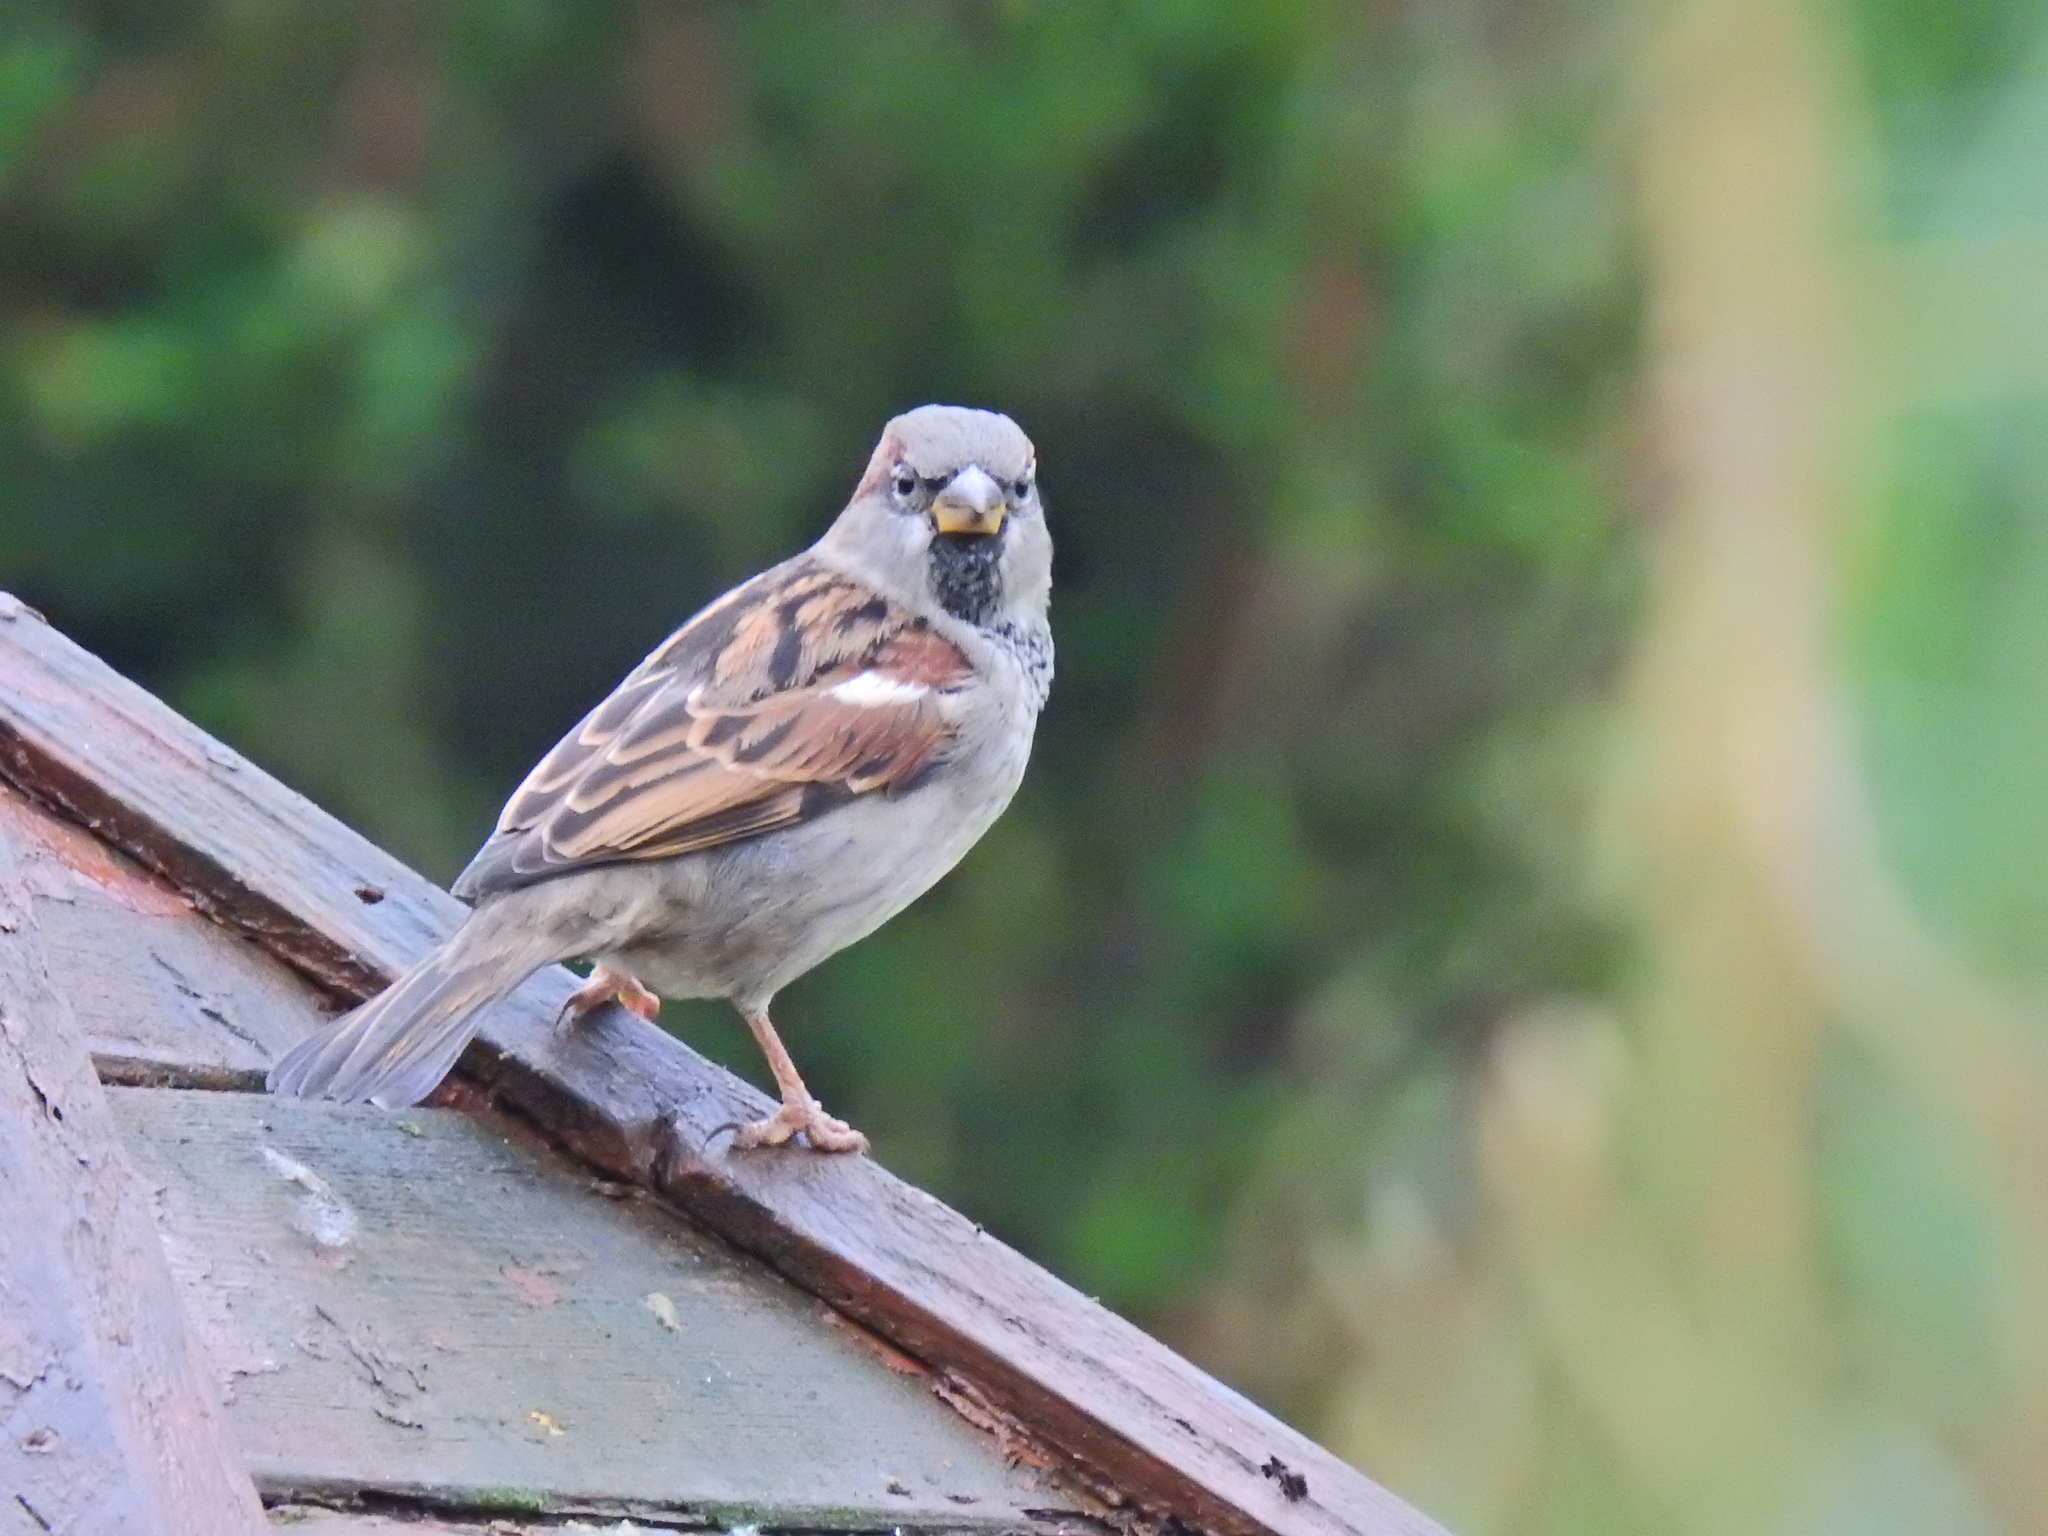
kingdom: Animalia
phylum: Chordata
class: Aves
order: Passeriformes
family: Passeridae
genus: Passer
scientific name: Passer domesticus
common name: House sparrow
